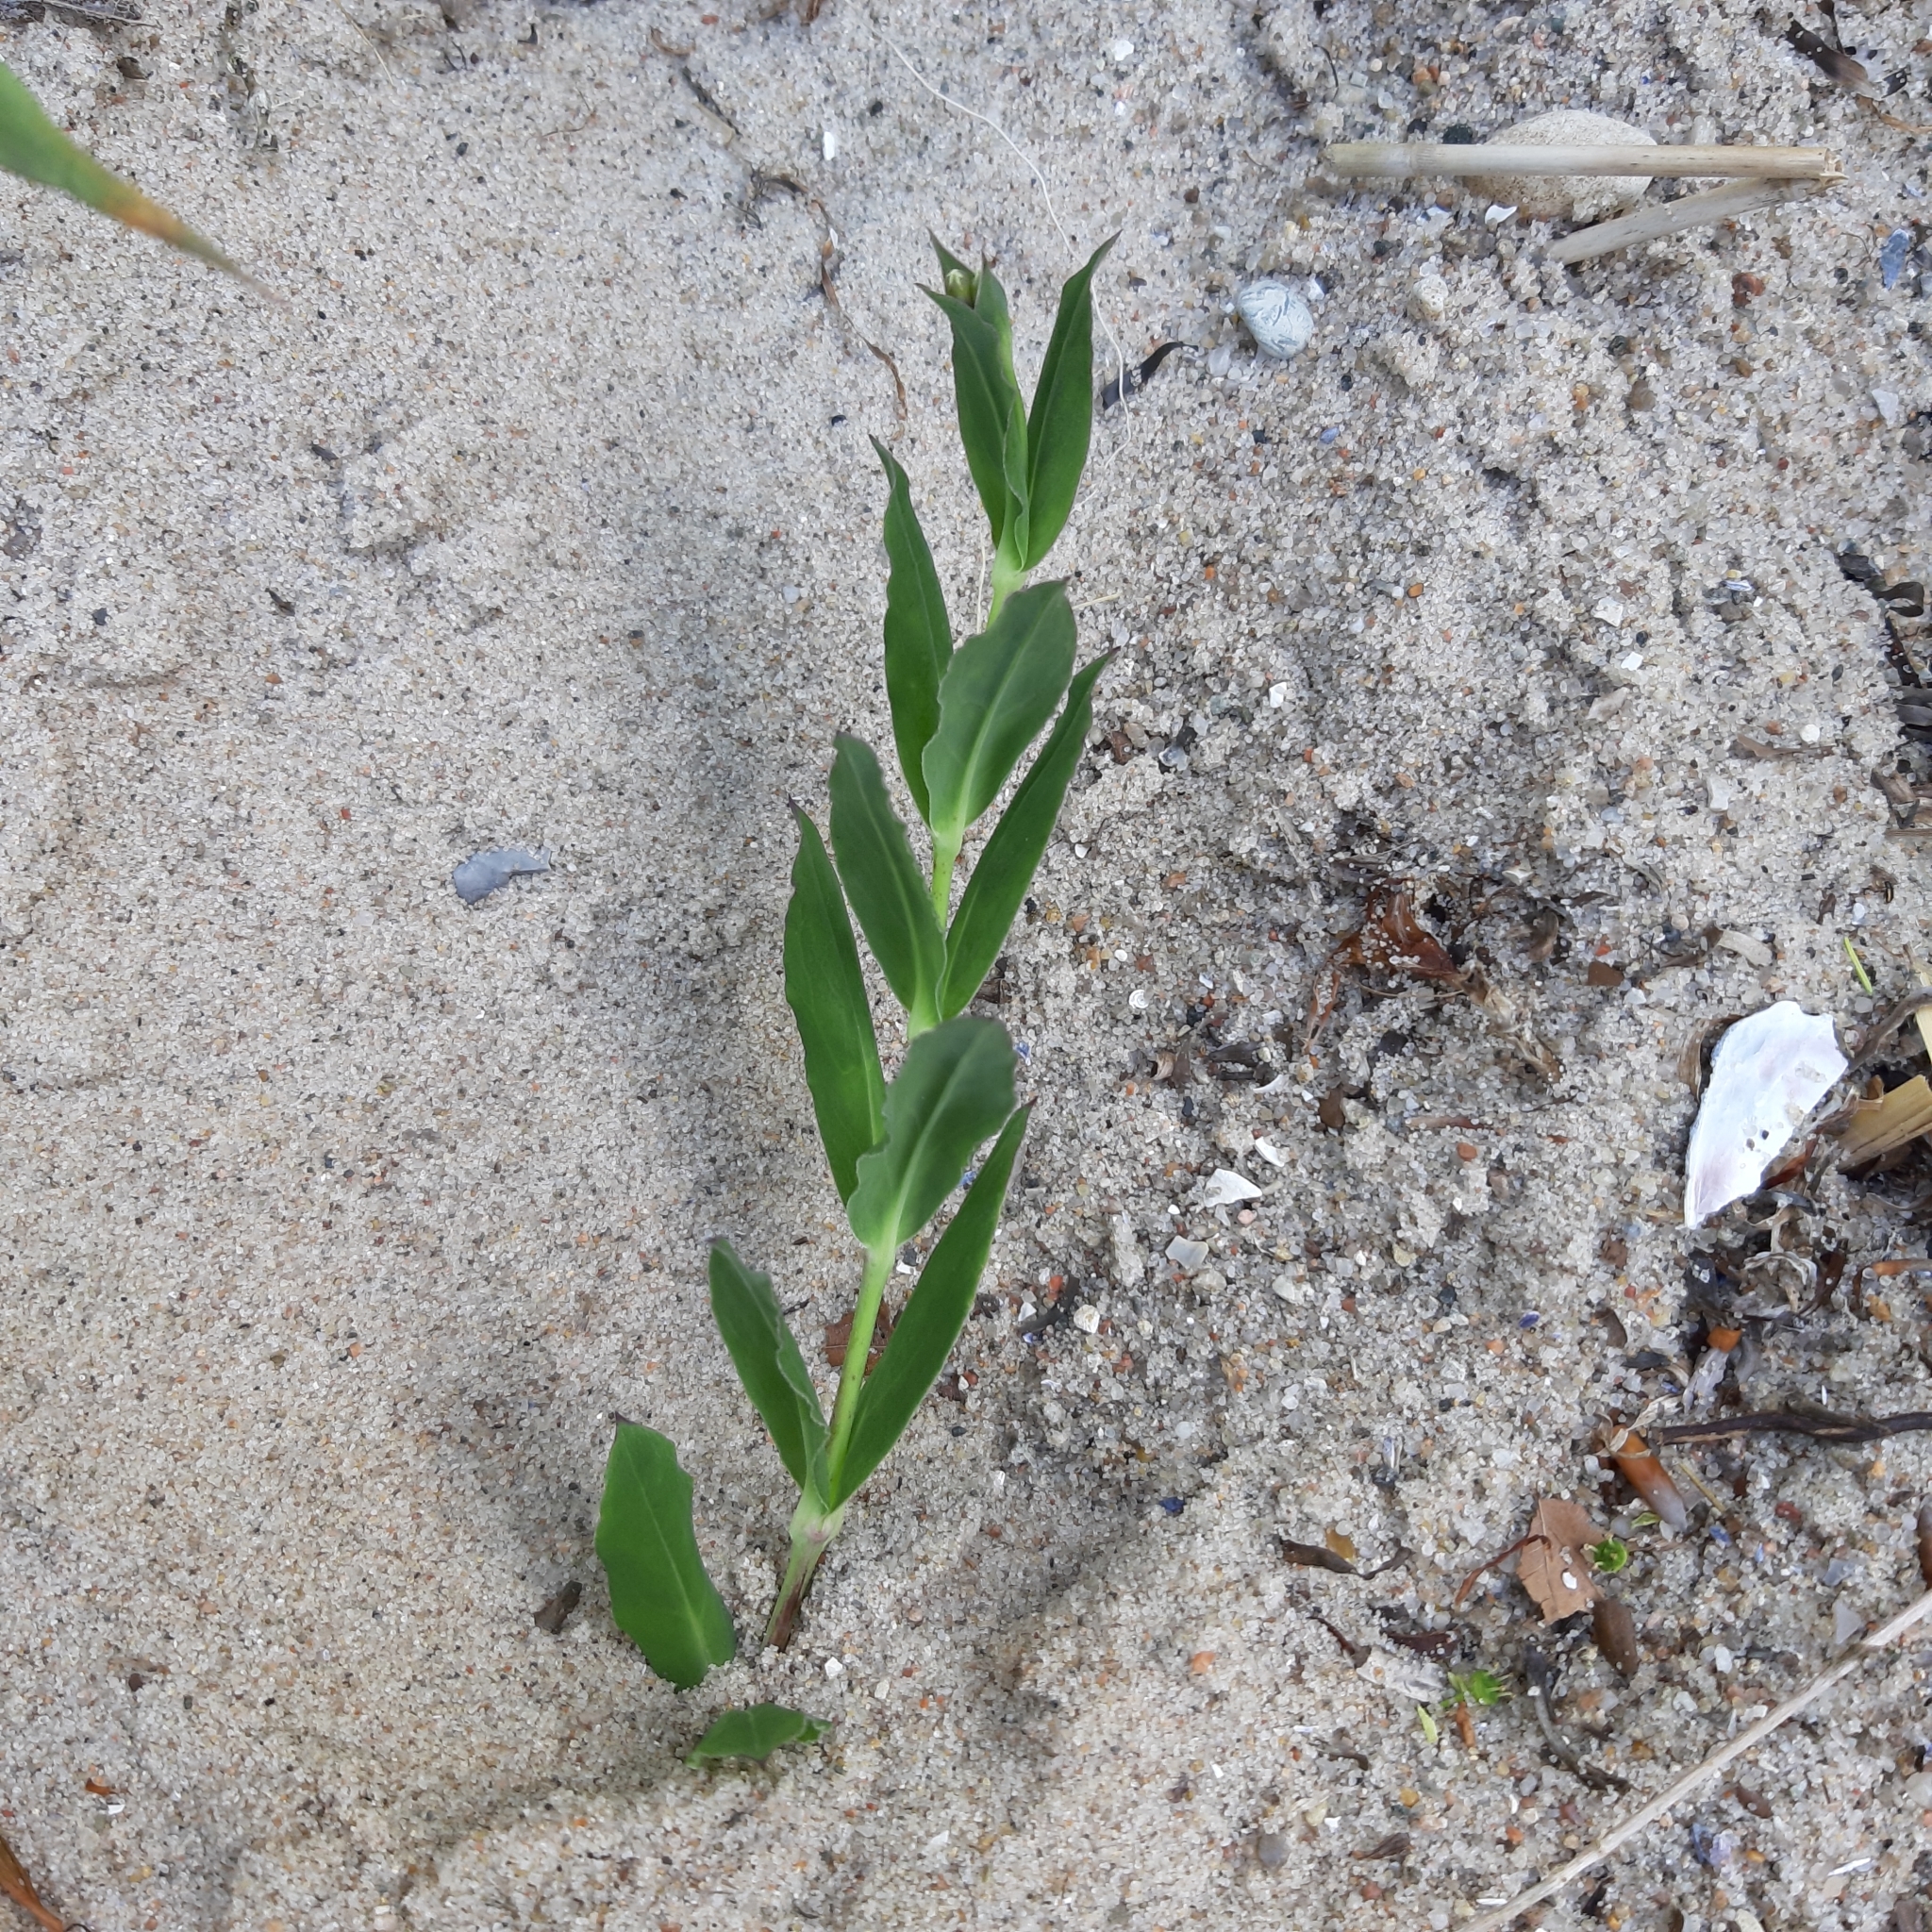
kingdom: Plantae
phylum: Tracheophyta
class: Magnoliopsida
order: Caryophyllales
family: Caryophyllaceae
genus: Silene
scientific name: Silene vulgaris
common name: Bladder campion
